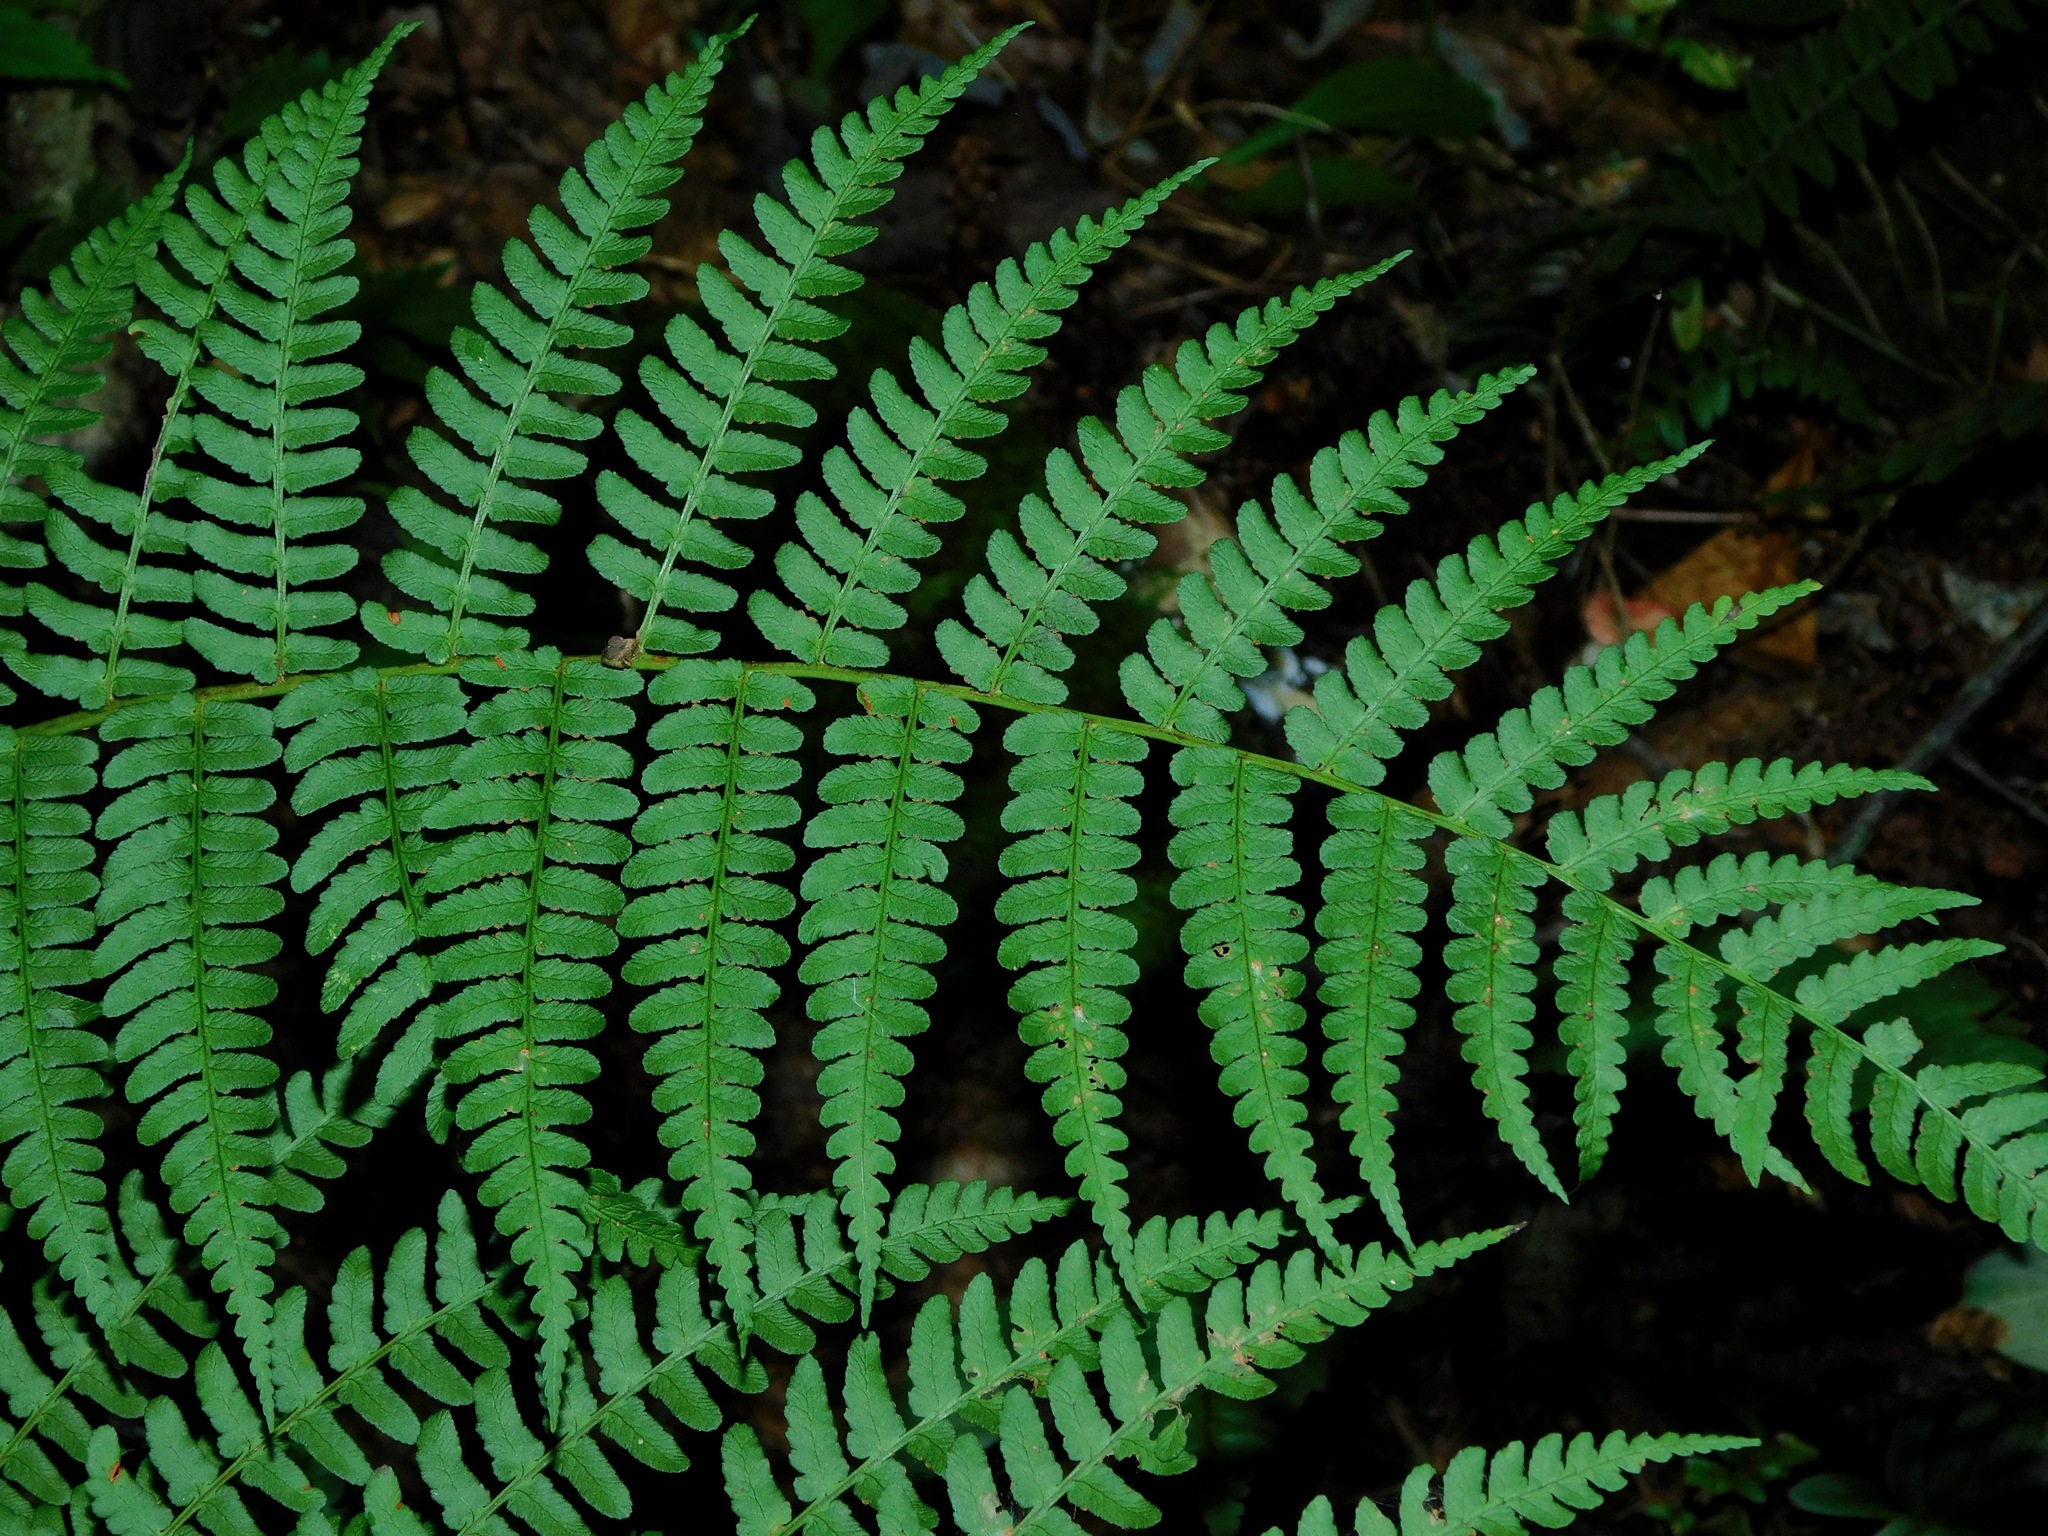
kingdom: Plantae
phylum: Tracheophyta
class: Polypodiopsida
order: Polypodiales
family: Dryopteridaceae
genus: Dryopteris
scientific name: Dryopteris marginalis
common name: Marginal wood fern
